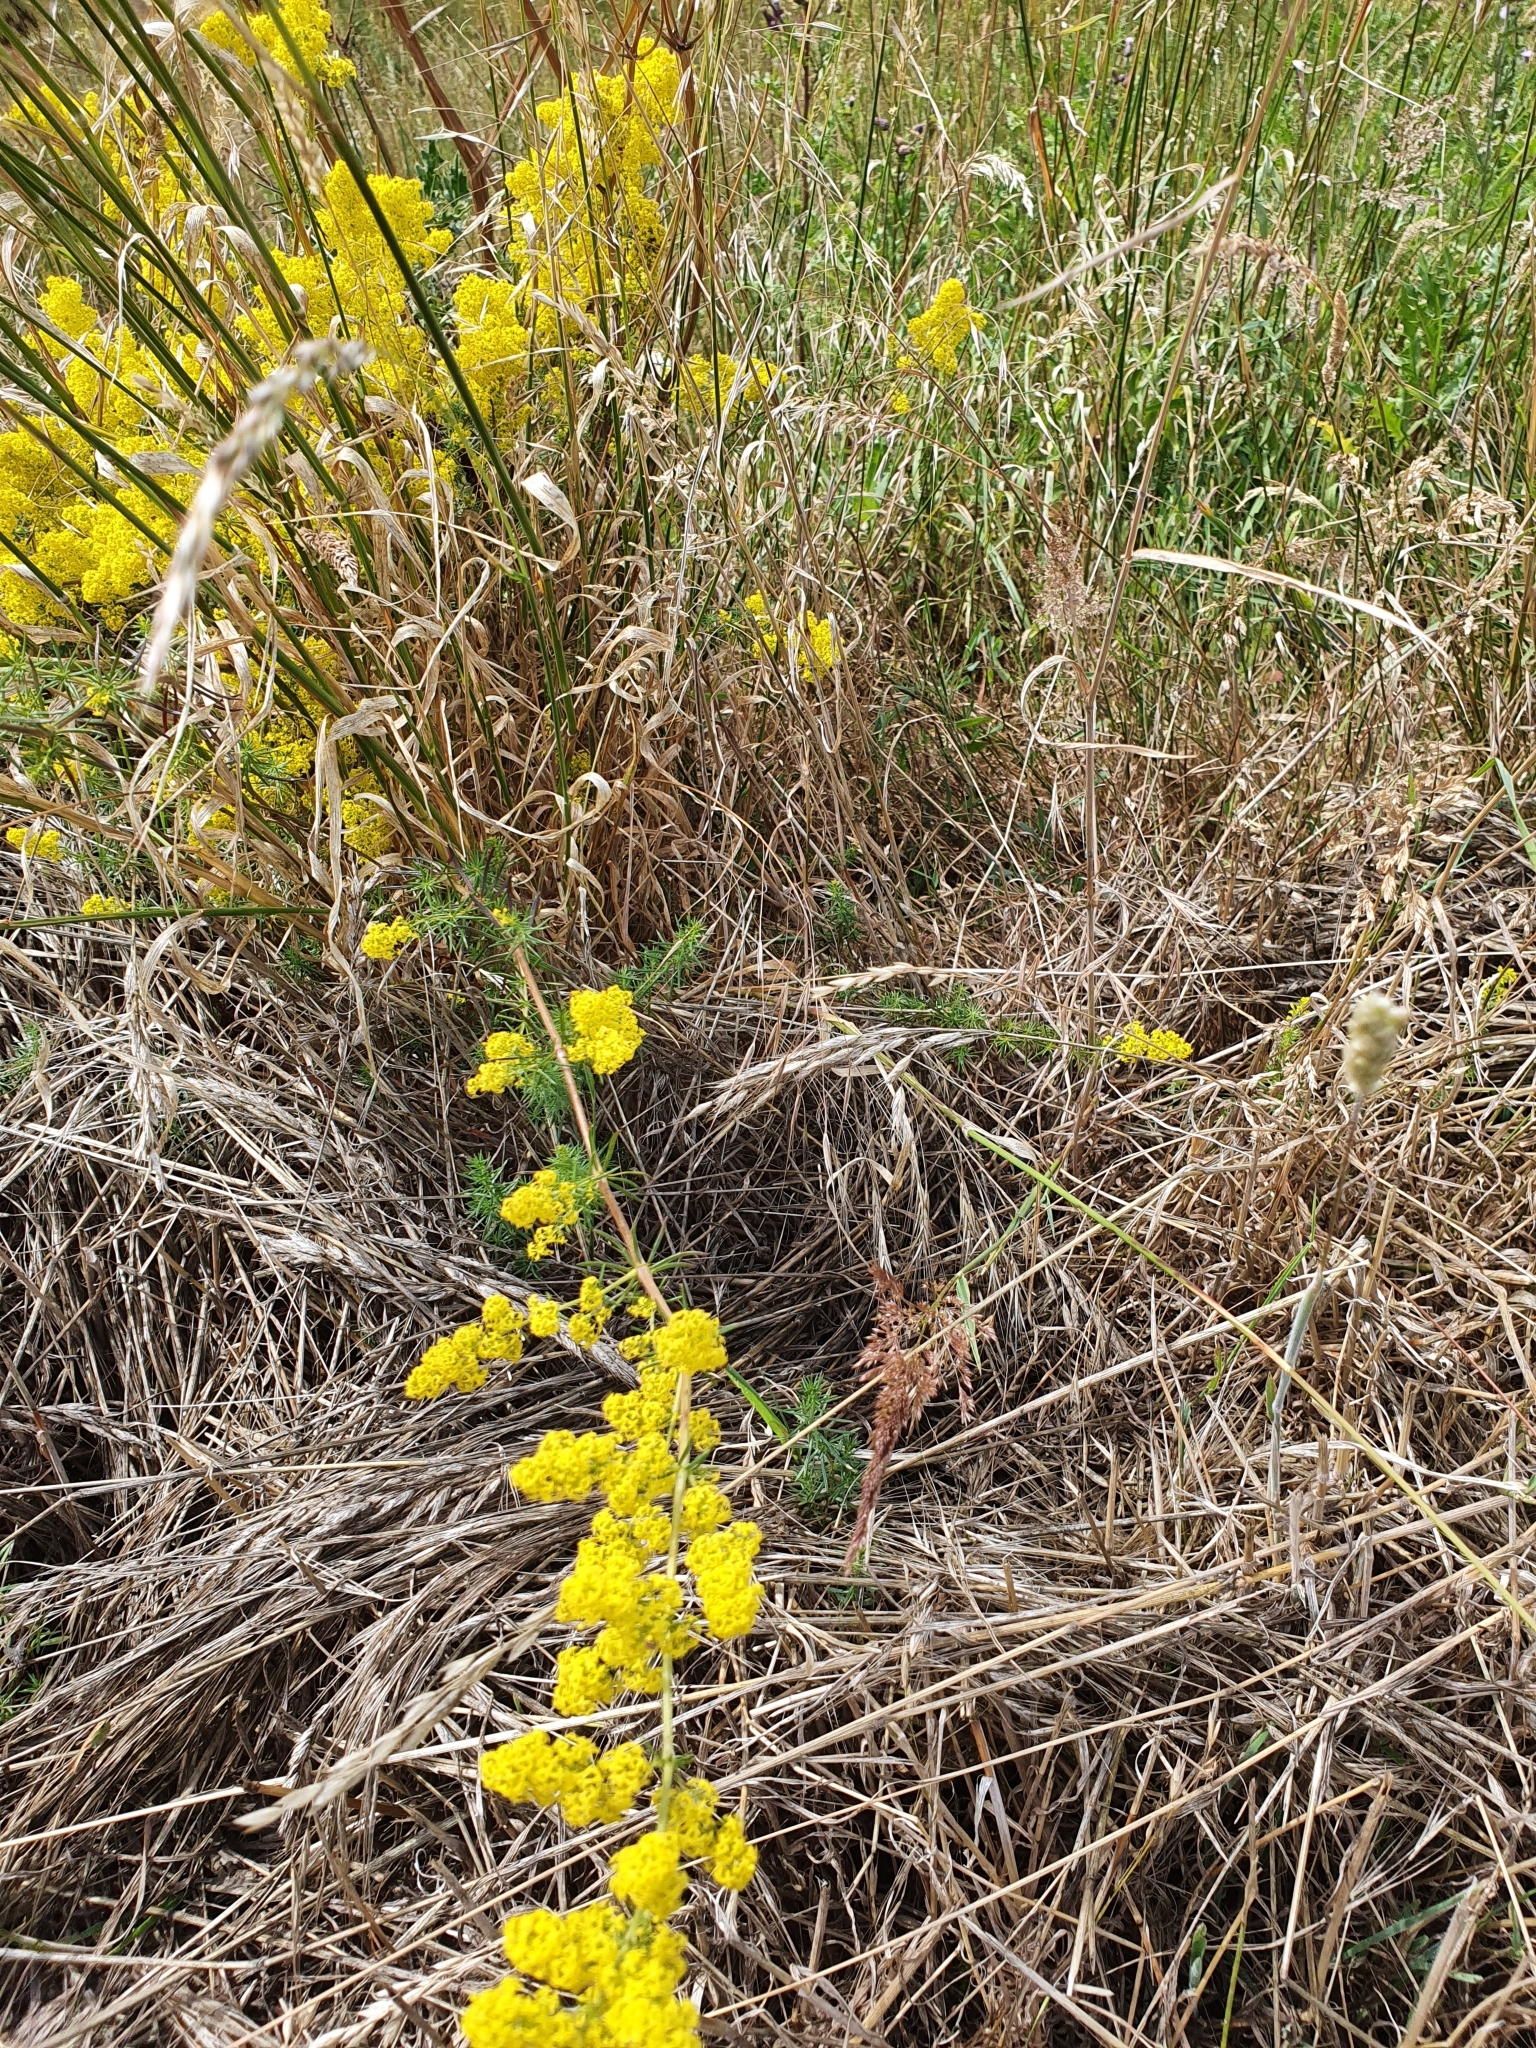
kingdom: Plantae
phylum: Tracheophyta
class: Magnoliopsida
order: Gentianales
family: Rubiaceae
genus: Galium
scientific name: Galium verum
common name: Lady's bedstraw
